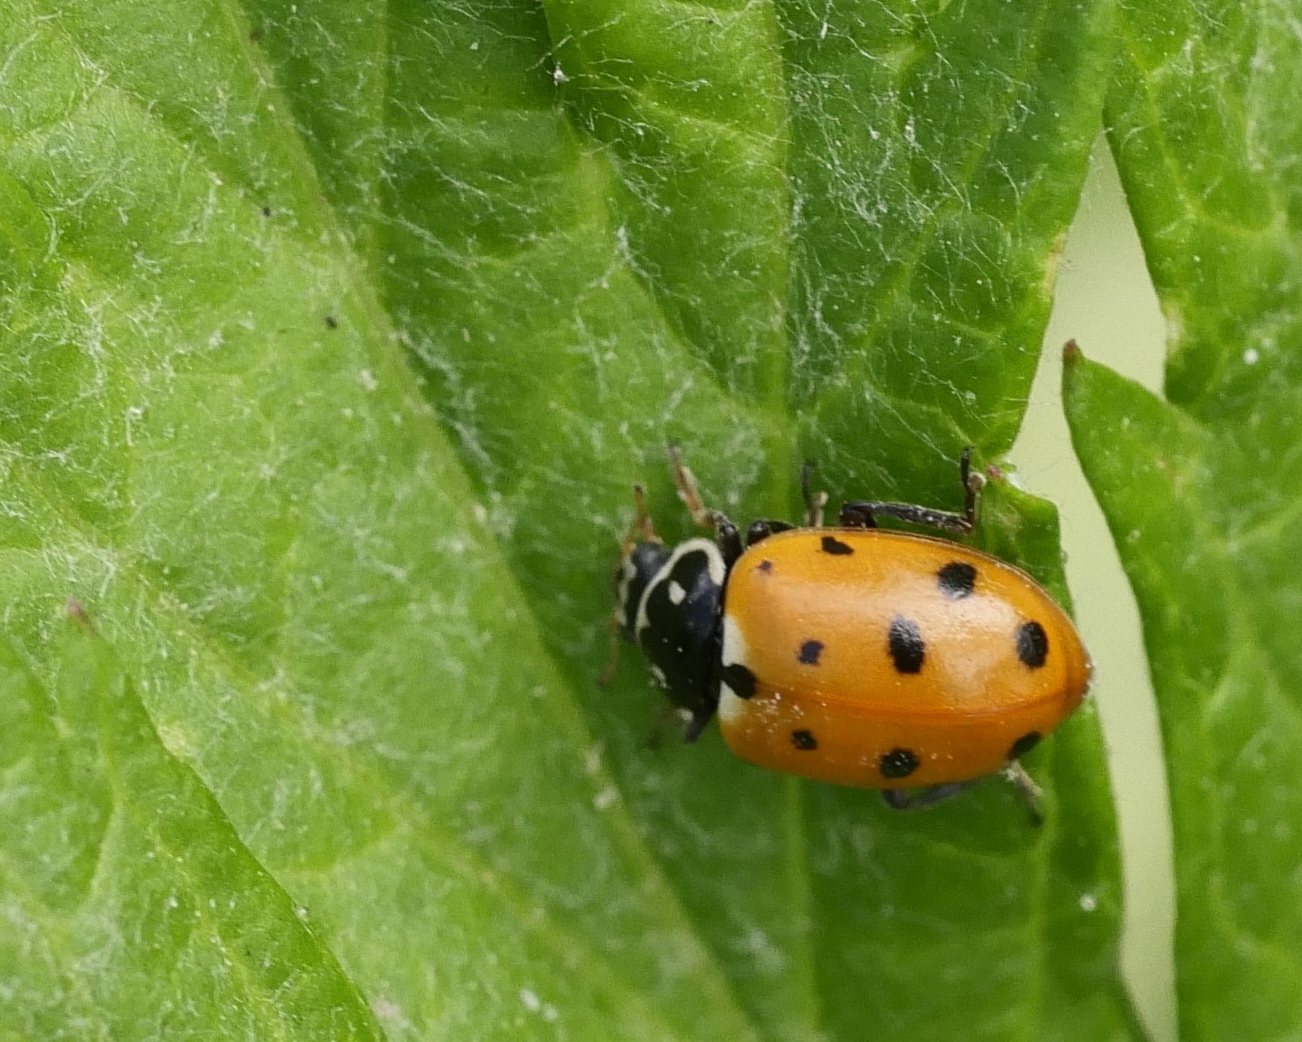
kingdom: Animalia
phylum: Arthropoda
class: Insecta
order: Coleoptera
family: Coccinellidae
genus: Hippodamia
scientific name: Hippodamia variegata
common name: Ladybird beetle
